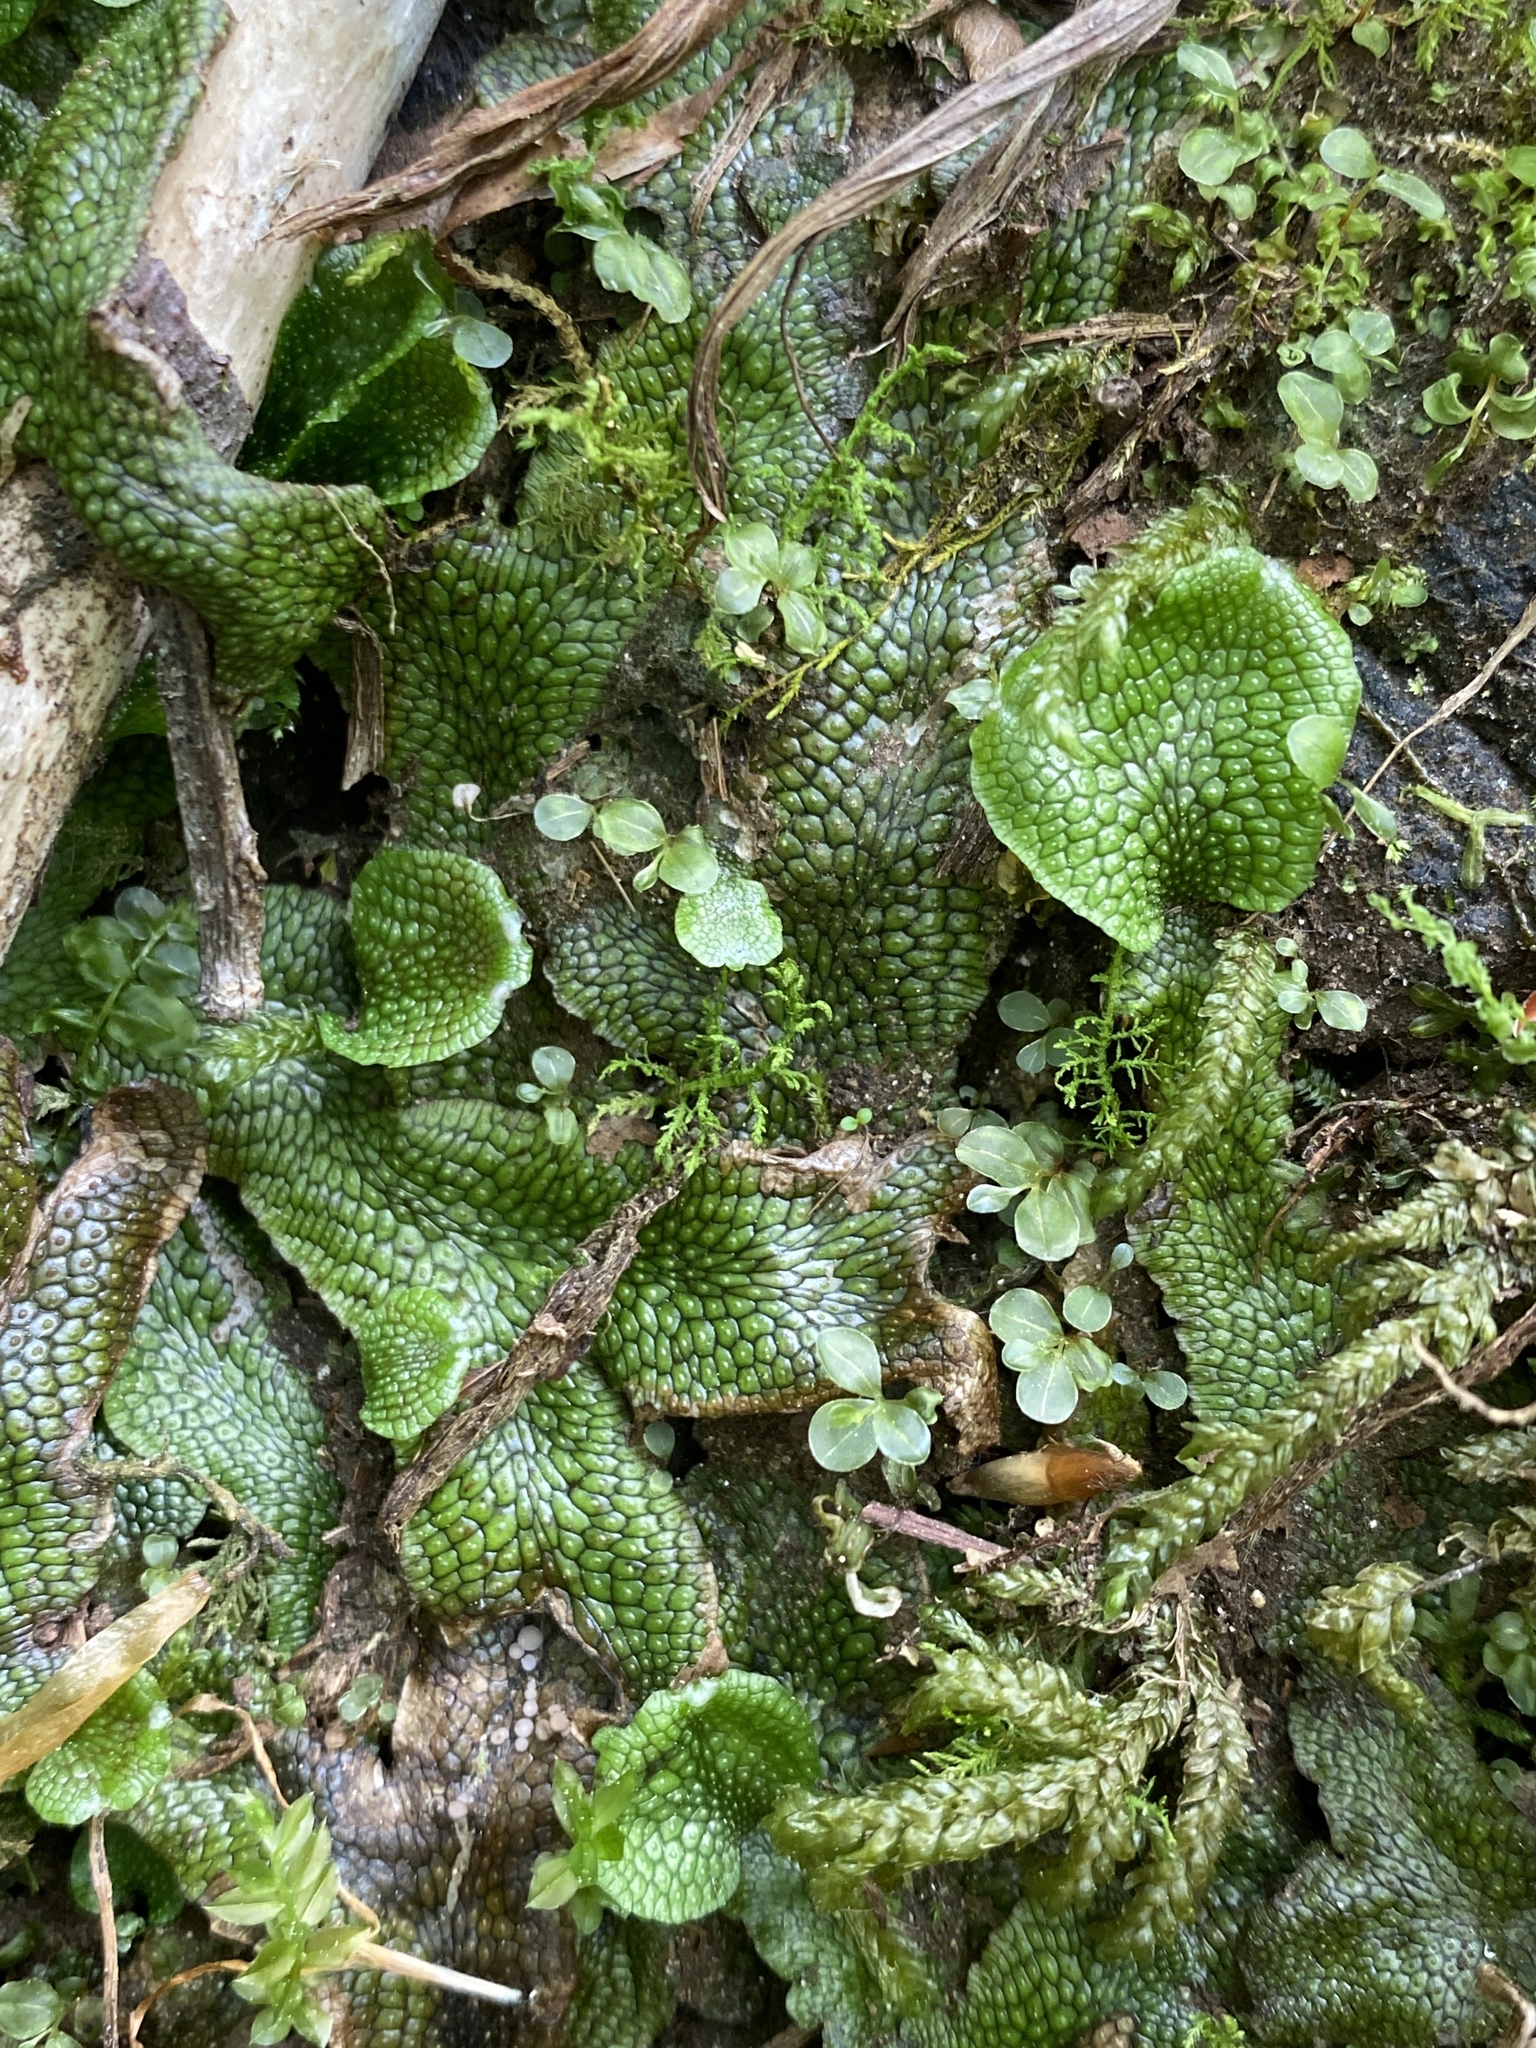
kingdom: Plantae
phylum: Marchantiophyta
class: Marchantiopsida
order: Marchantiales
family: Conocephalaceae
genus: Conocephalum
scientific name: Conocephalum salebrosum
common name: Cat-tongue liverwort
